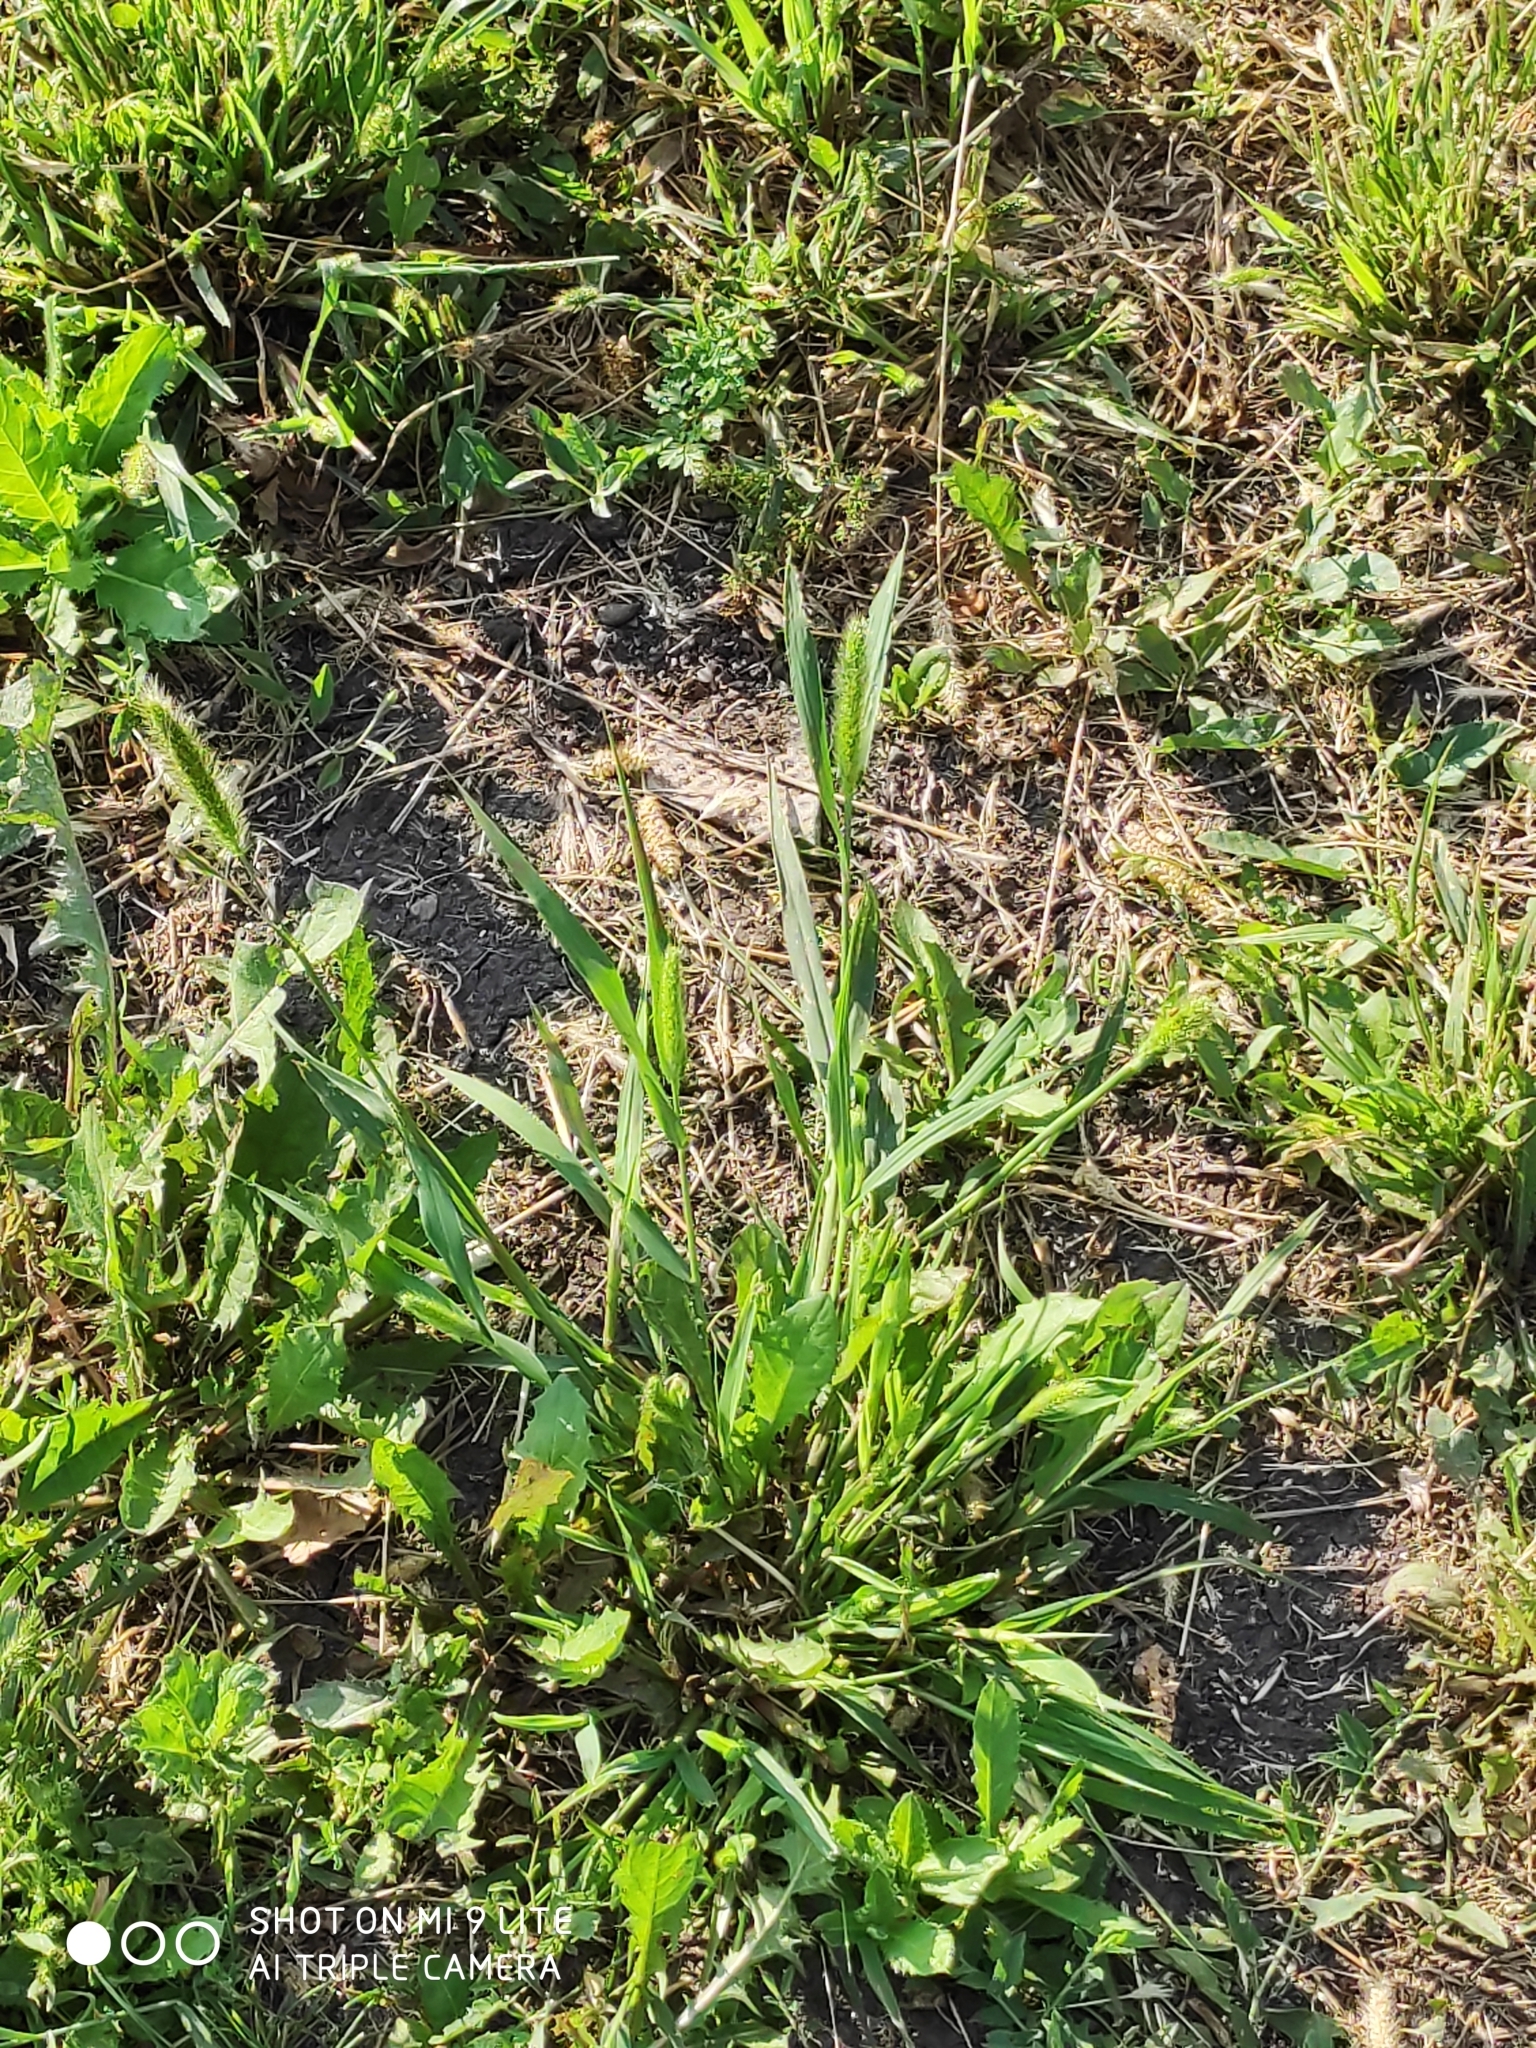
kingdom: Plantae
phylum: Tracheophyta
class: Liliopsida
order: Poales
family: Poaceae
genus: Setaria
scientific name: Setaria viridis
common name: Green bristlegrass
